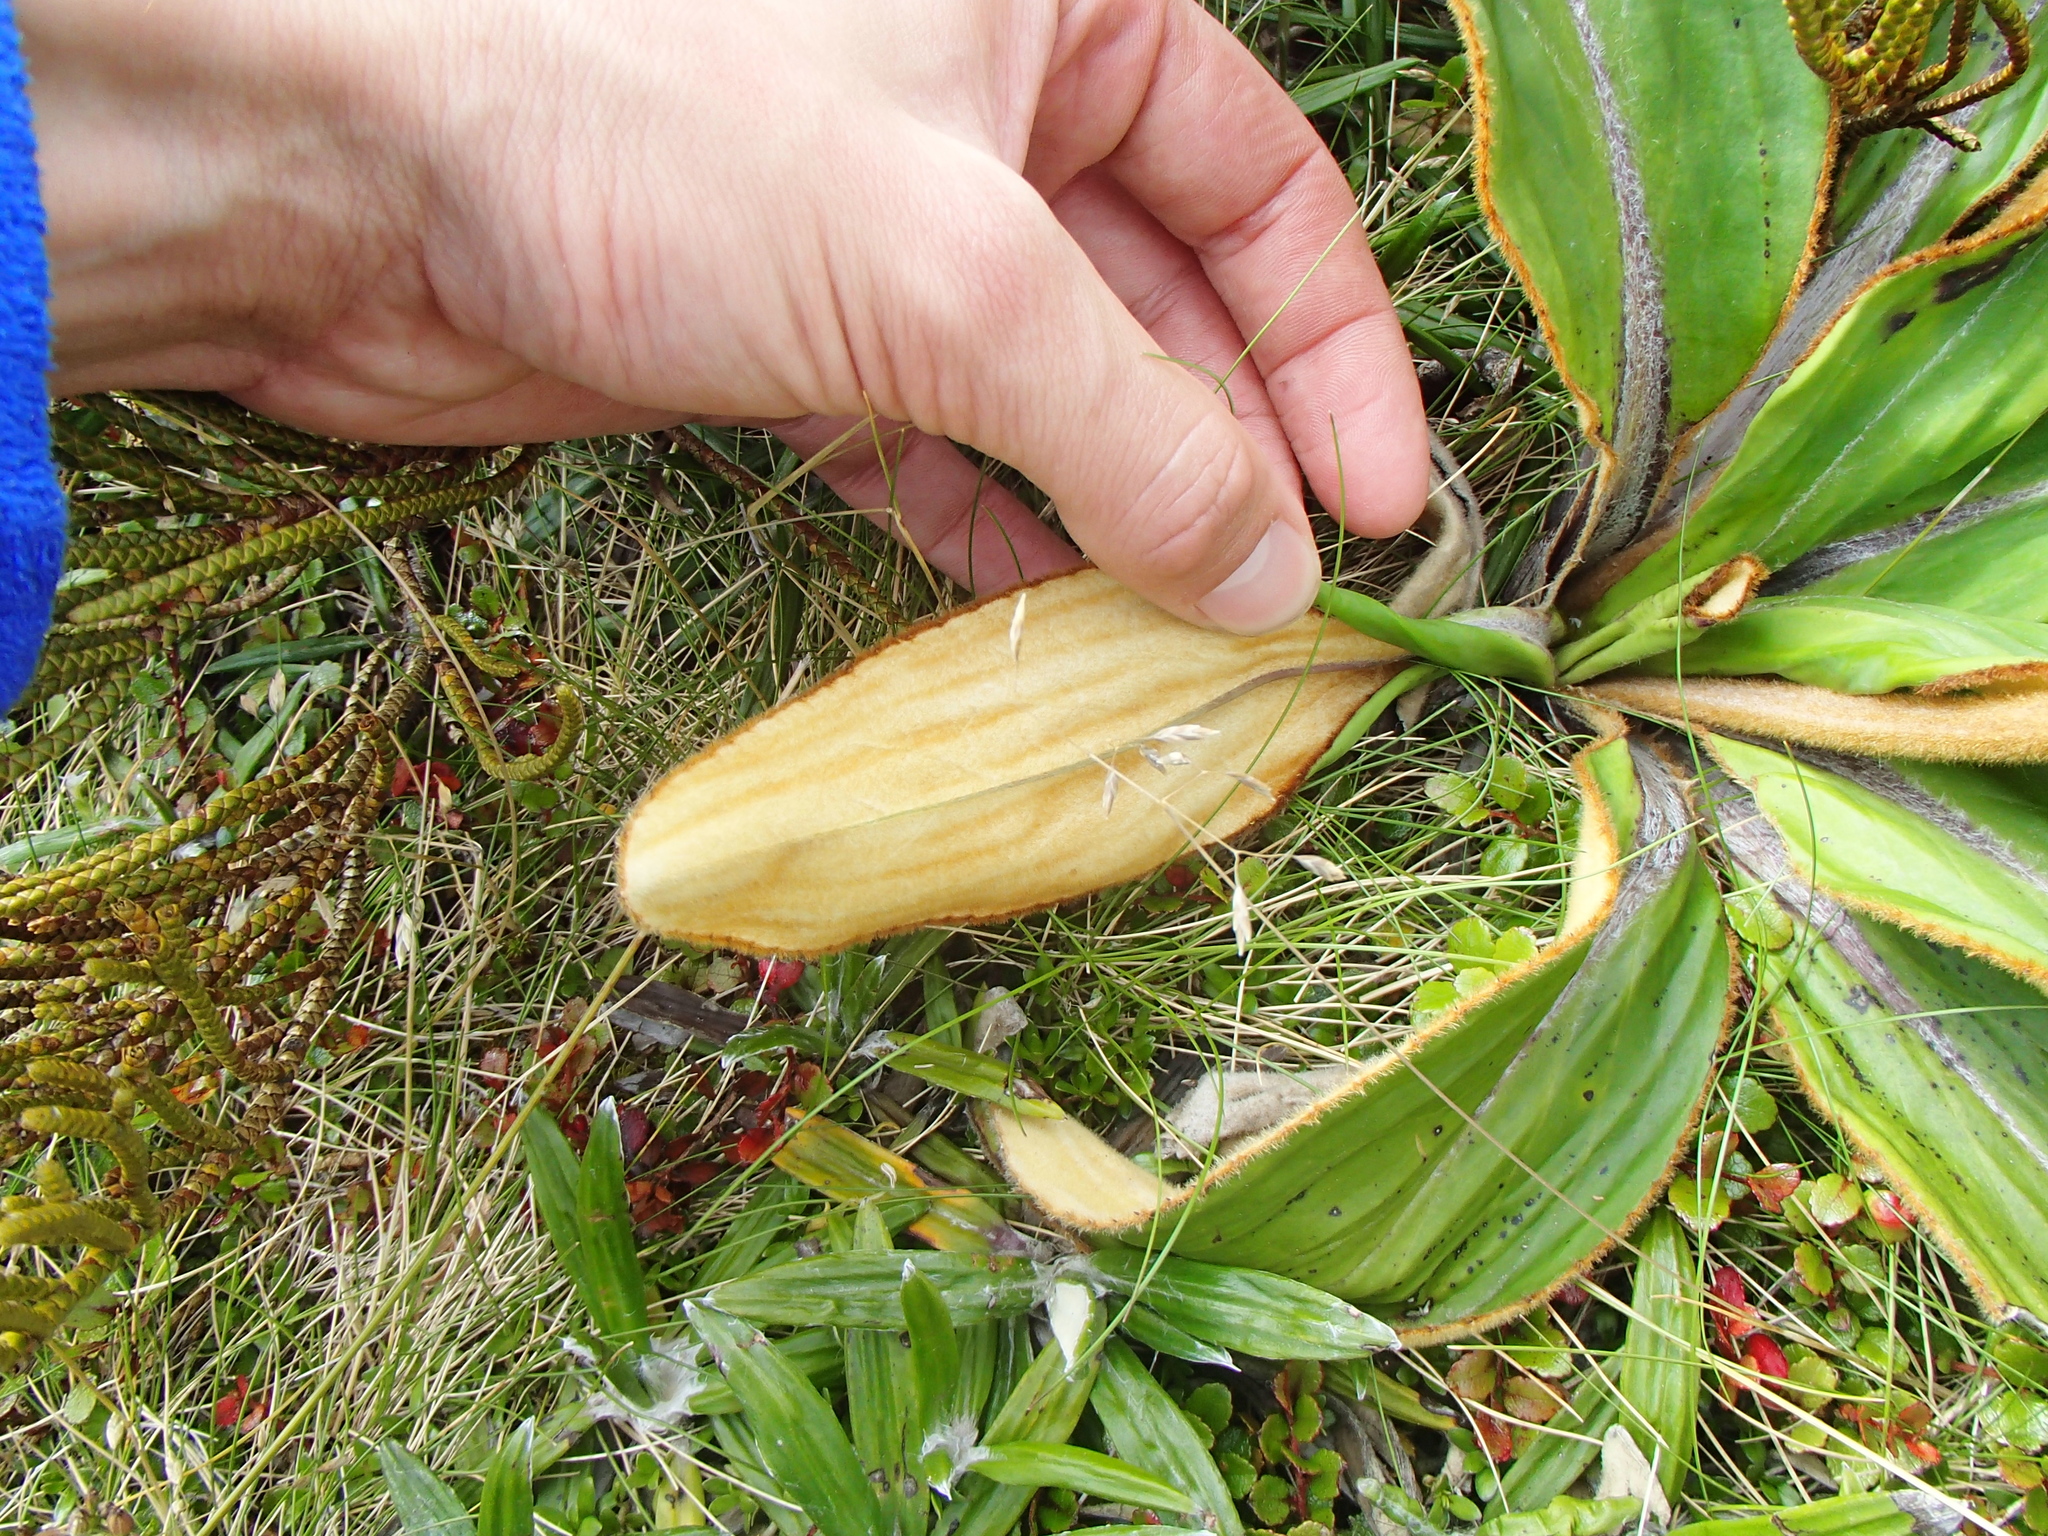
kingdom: Plantae
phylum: Tracheophyta
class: Magnoliopsida
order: Asterales
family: Asteraceae
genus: Celmisia
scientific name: Celmisia traversii
